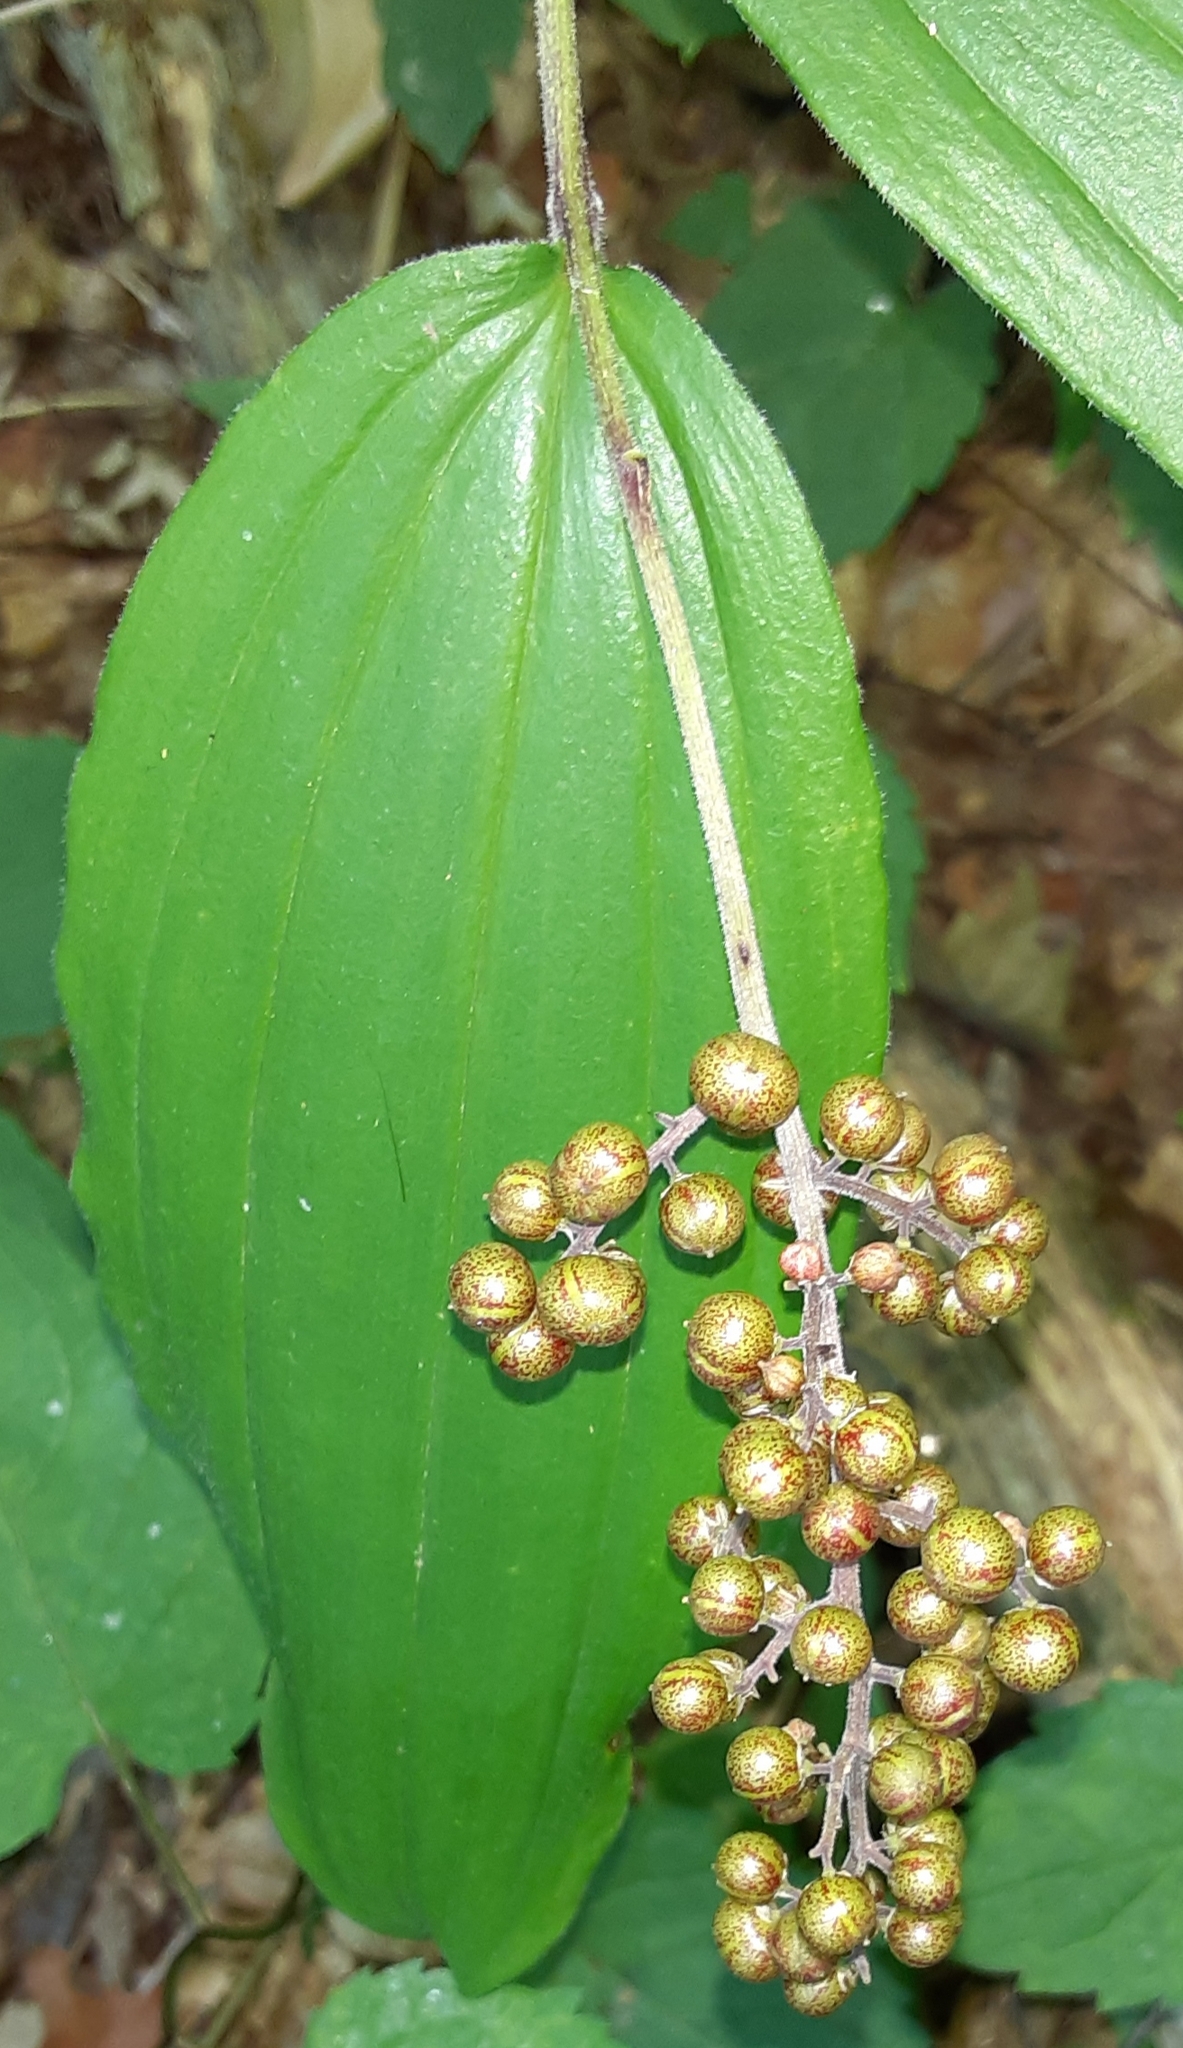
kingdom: Plantae
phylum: Tracheophyta
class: Liliopsida
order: Asparagales
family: Asparagaceae
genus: Maianthemum
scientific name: Maianthemum racemosum
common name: False spikenard
